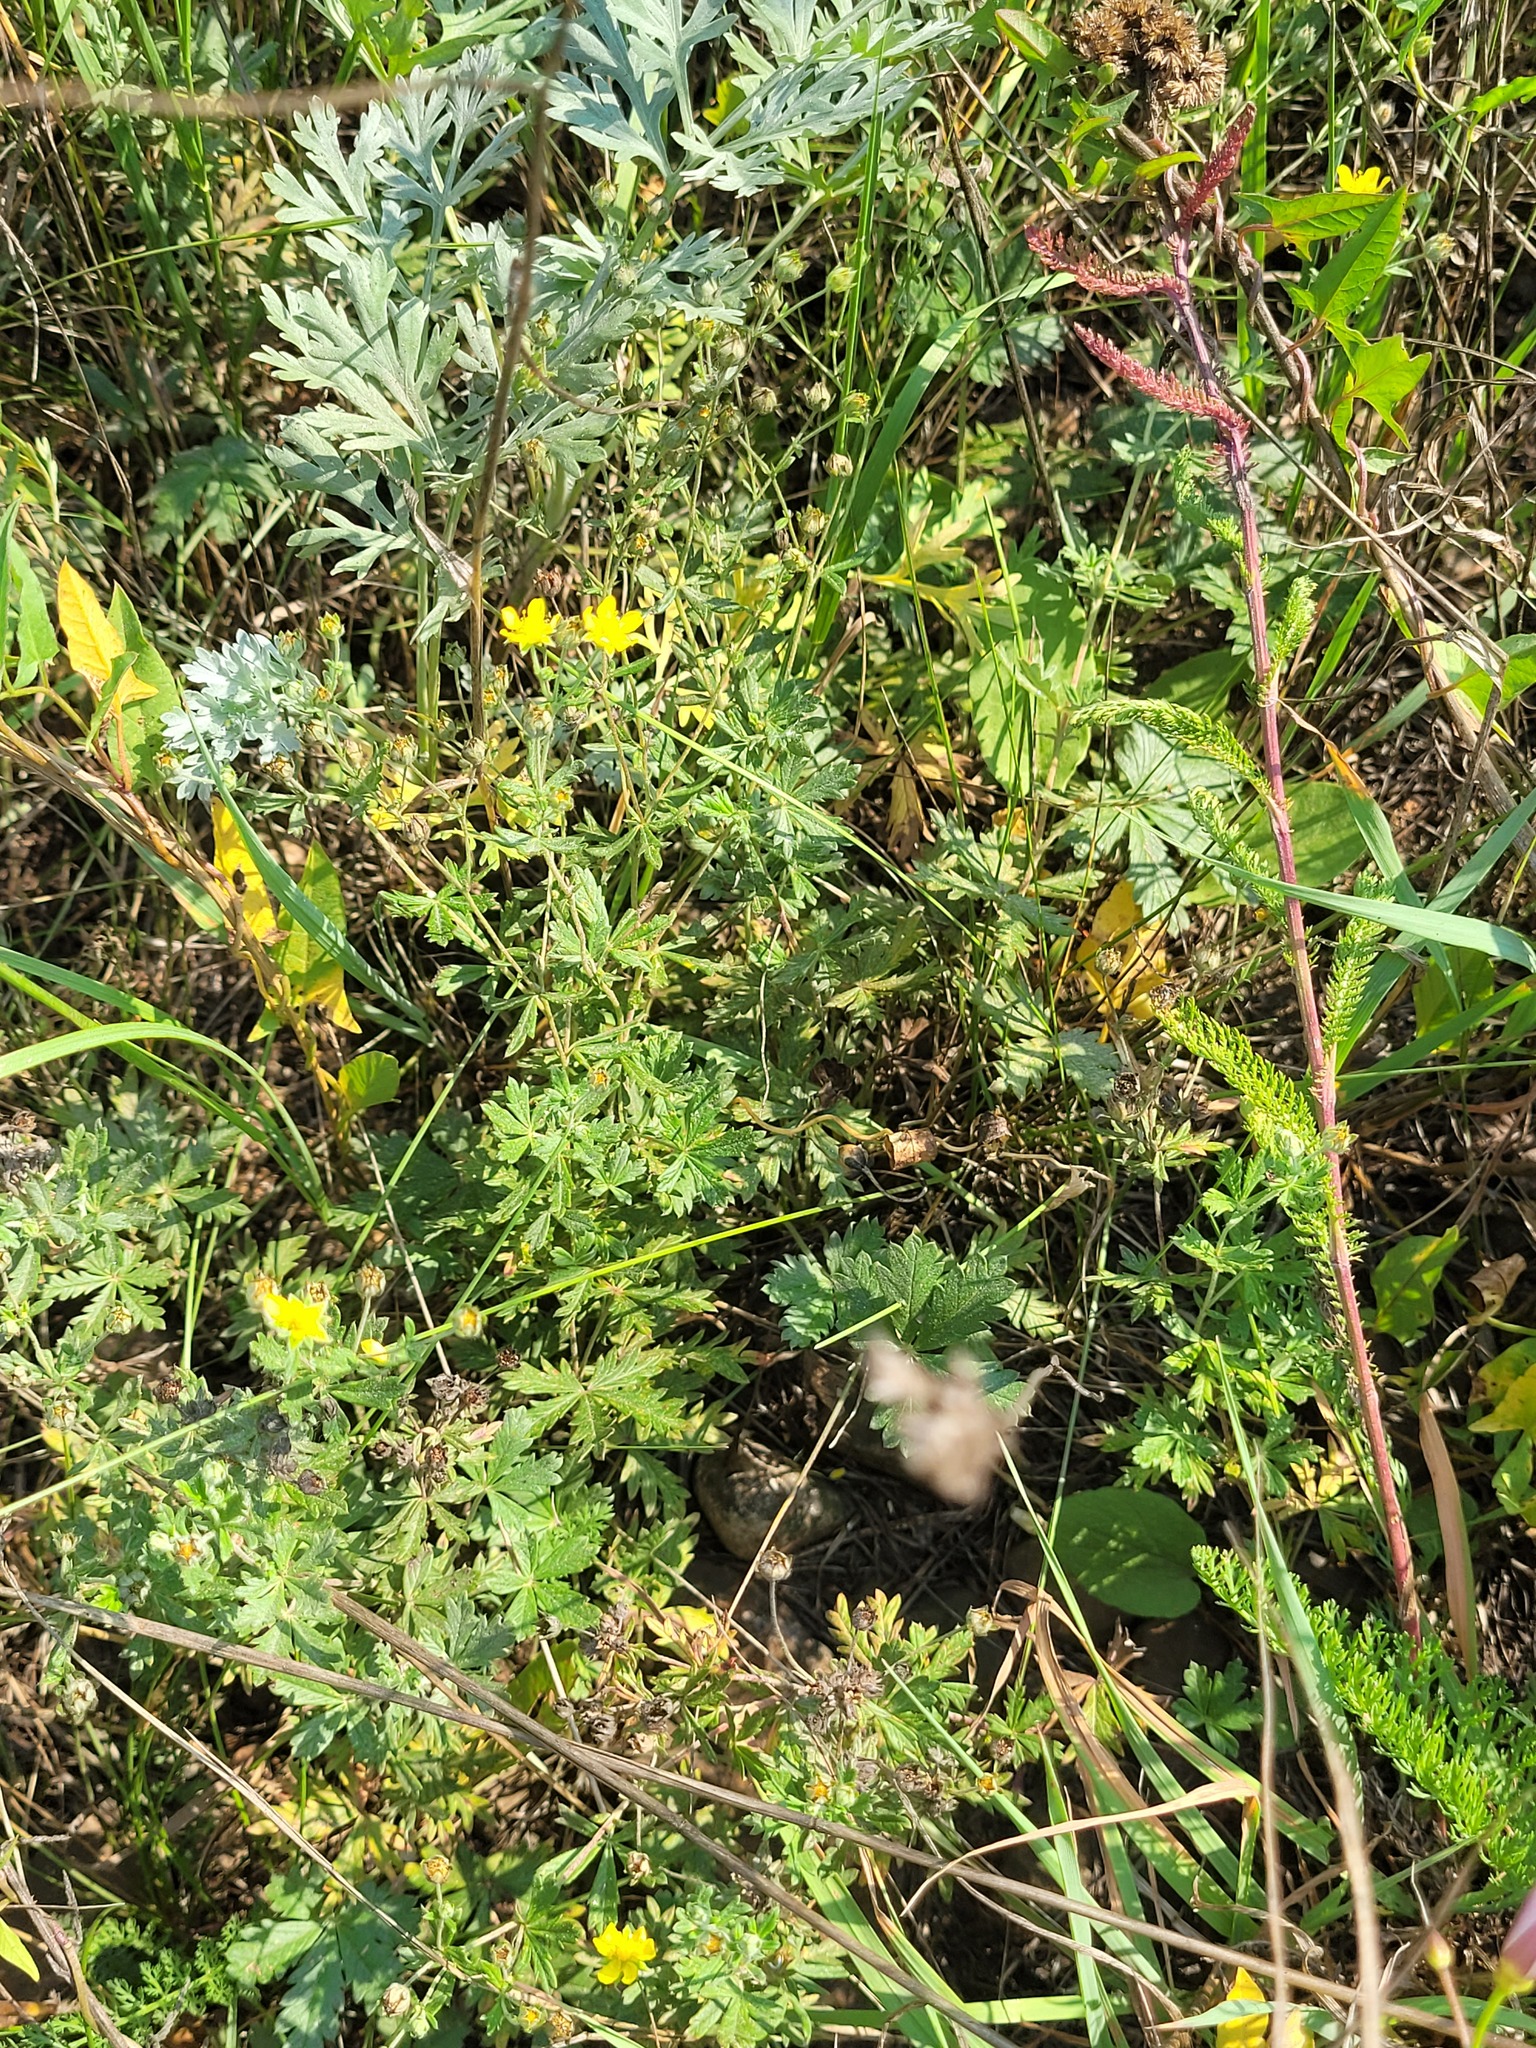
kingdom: Plantae
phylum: Tracheophyta
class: Magnoliopsida
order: Rosales
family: Rosaceae
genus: Potentilla
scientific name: Potentilla argentea
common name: Hoary cinquefoil
